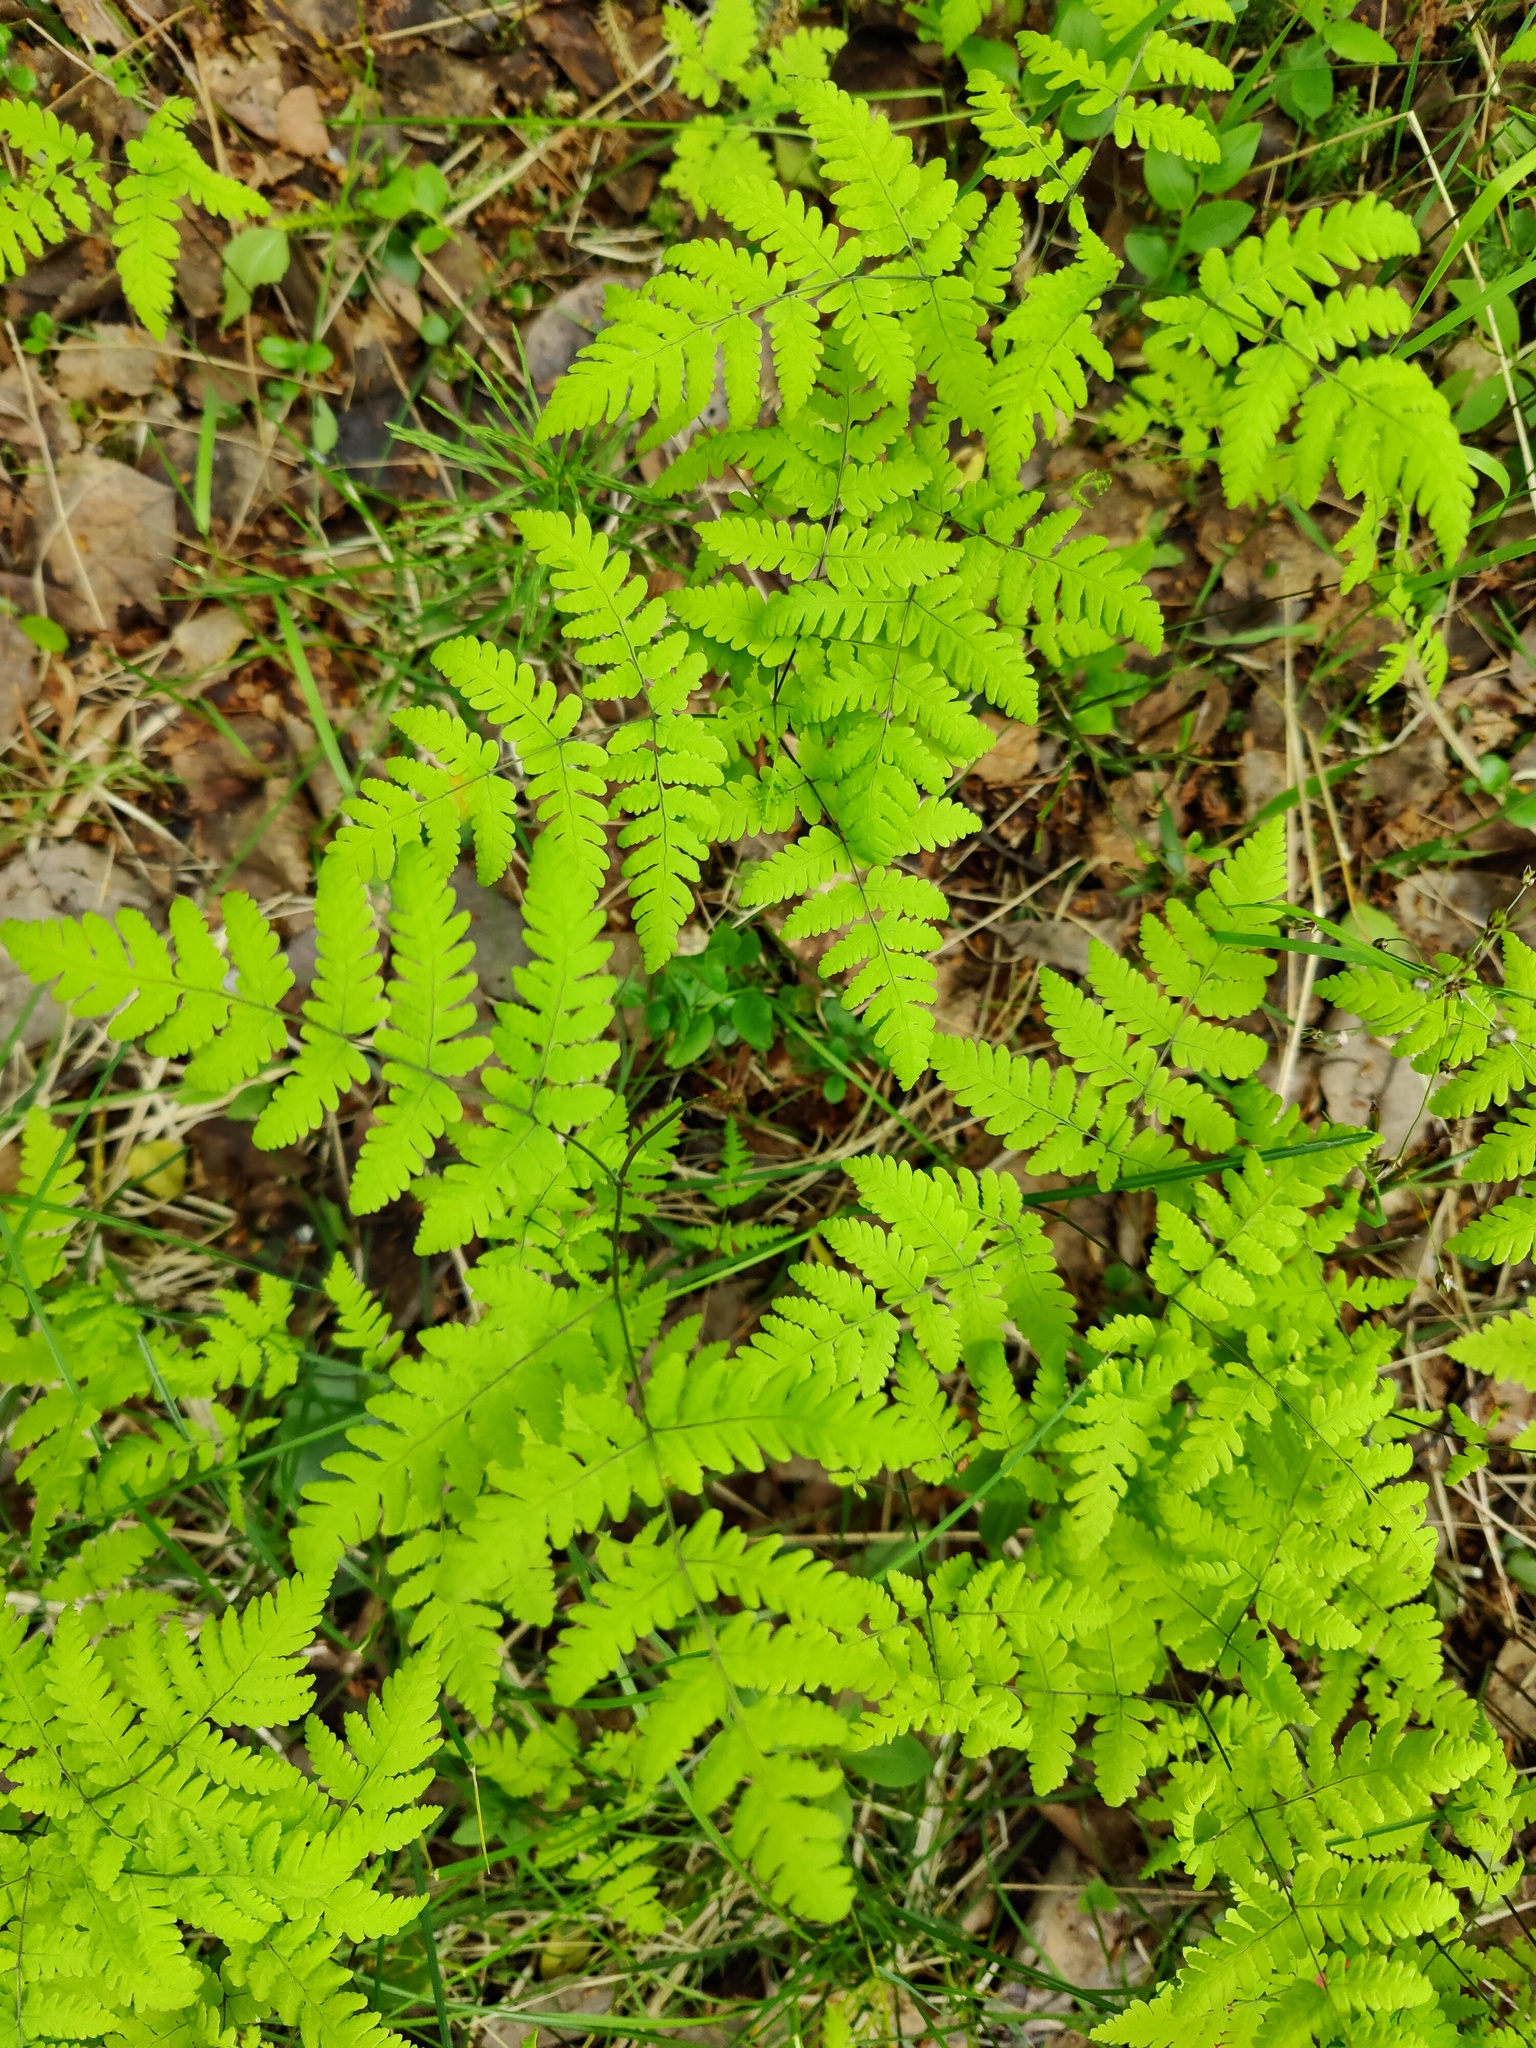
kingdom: Plantae
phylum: Tracheophyta
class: Polypodiopsida
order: Polypodiales
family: Cystopteridaceae
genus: Gymnocarpium
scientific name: Gymnocarpium dryopteris
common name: Oak fern
